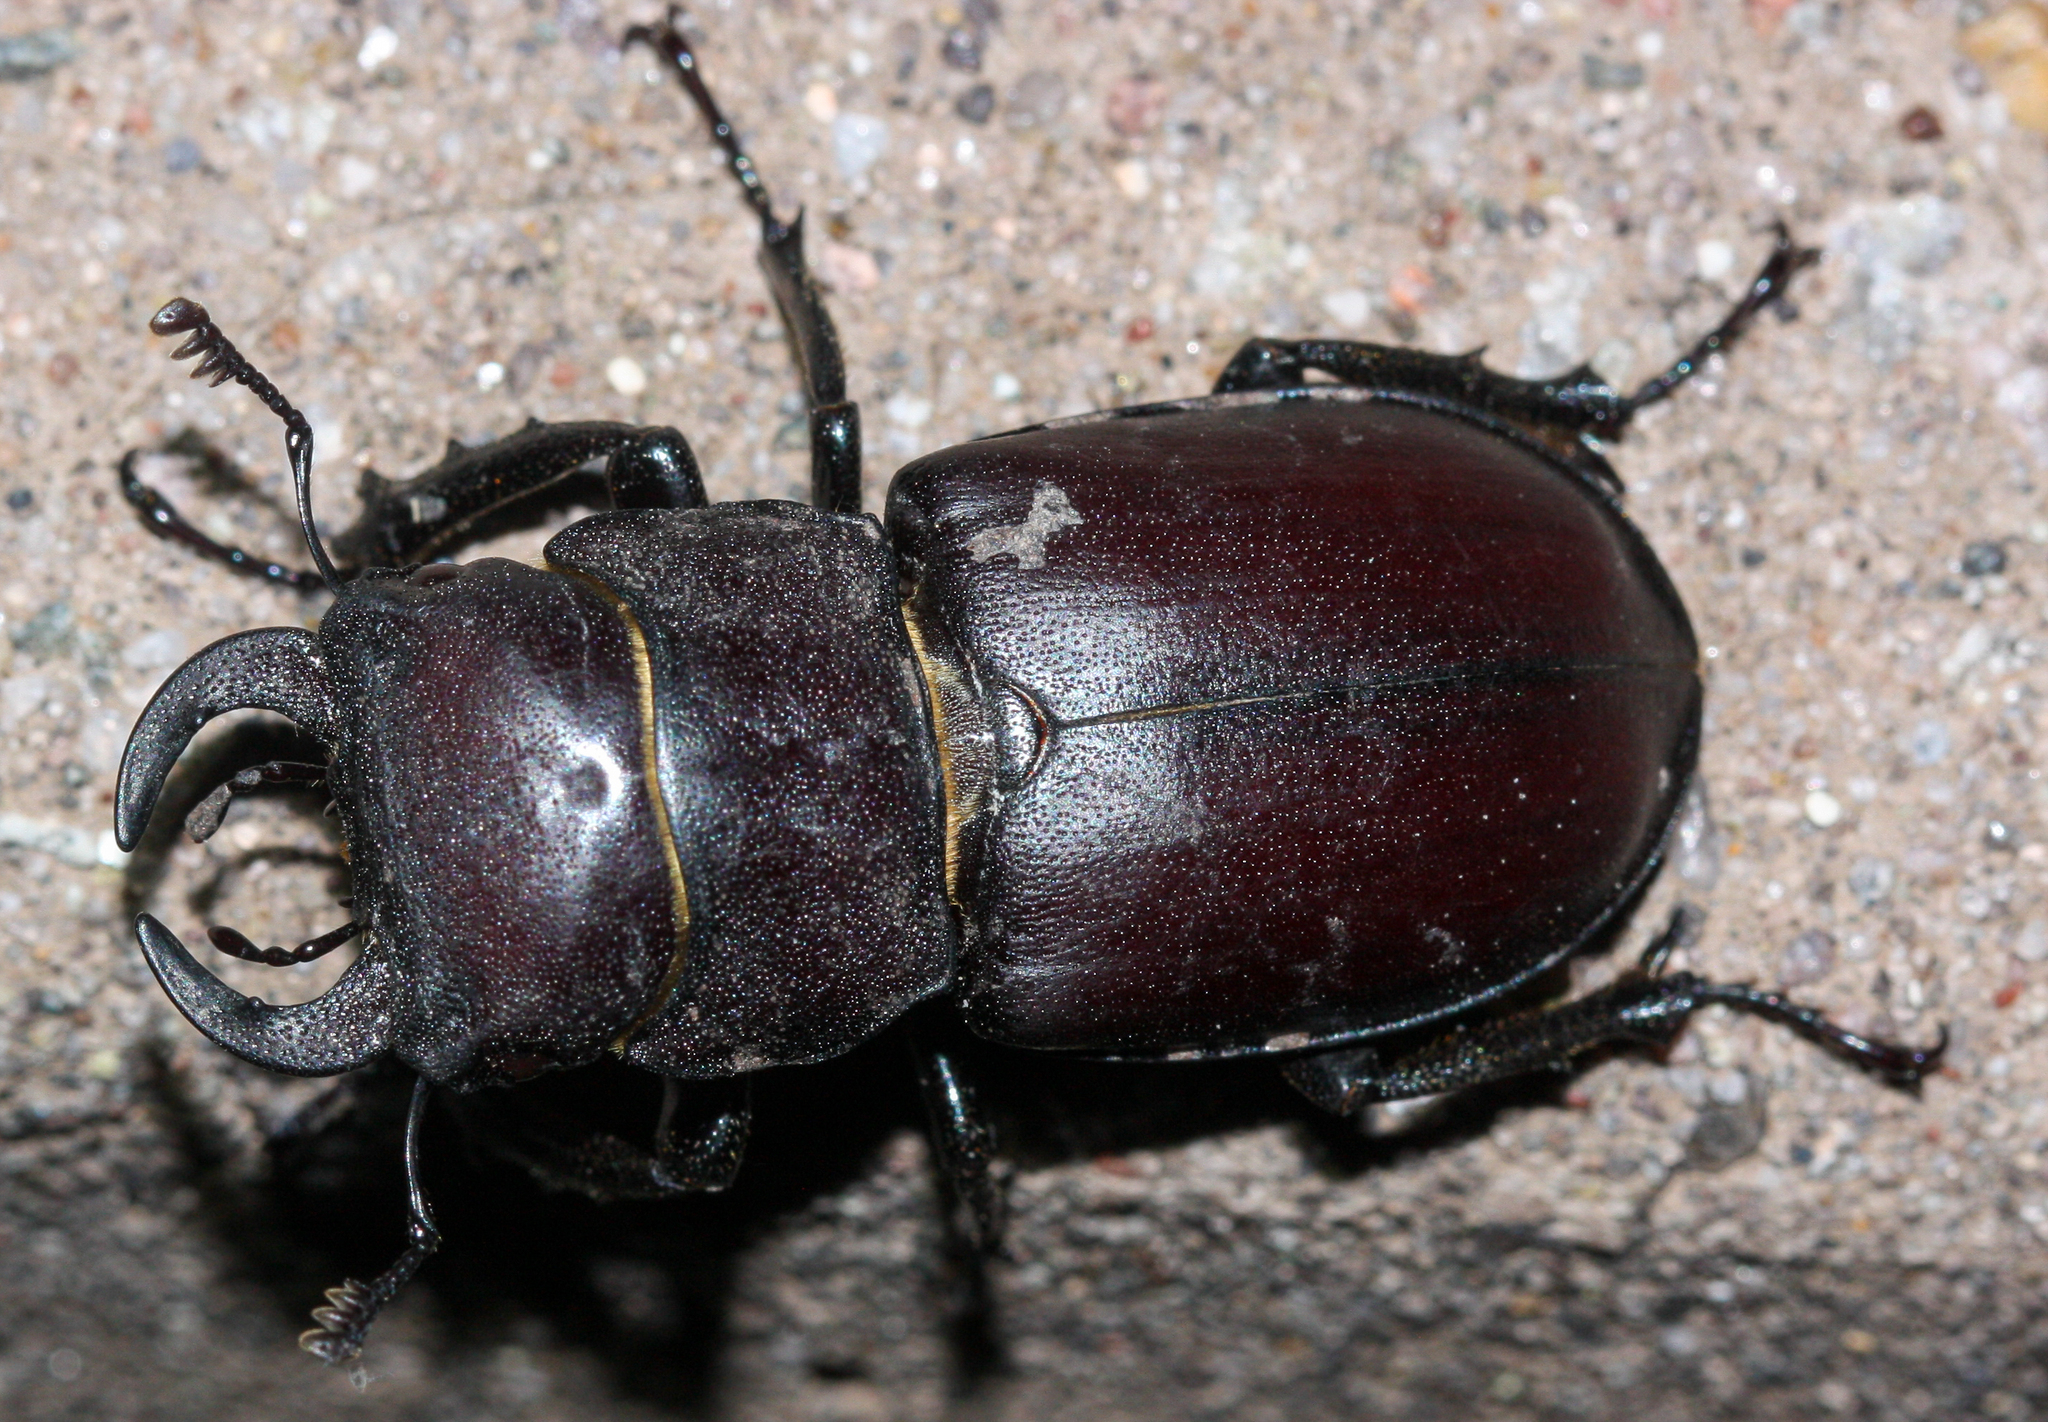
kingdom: Animalia
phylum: Arthropoda
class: Insecta
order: Coleoptera
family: Lucanidae
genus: Lucanus
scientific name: Lucanus mazama
